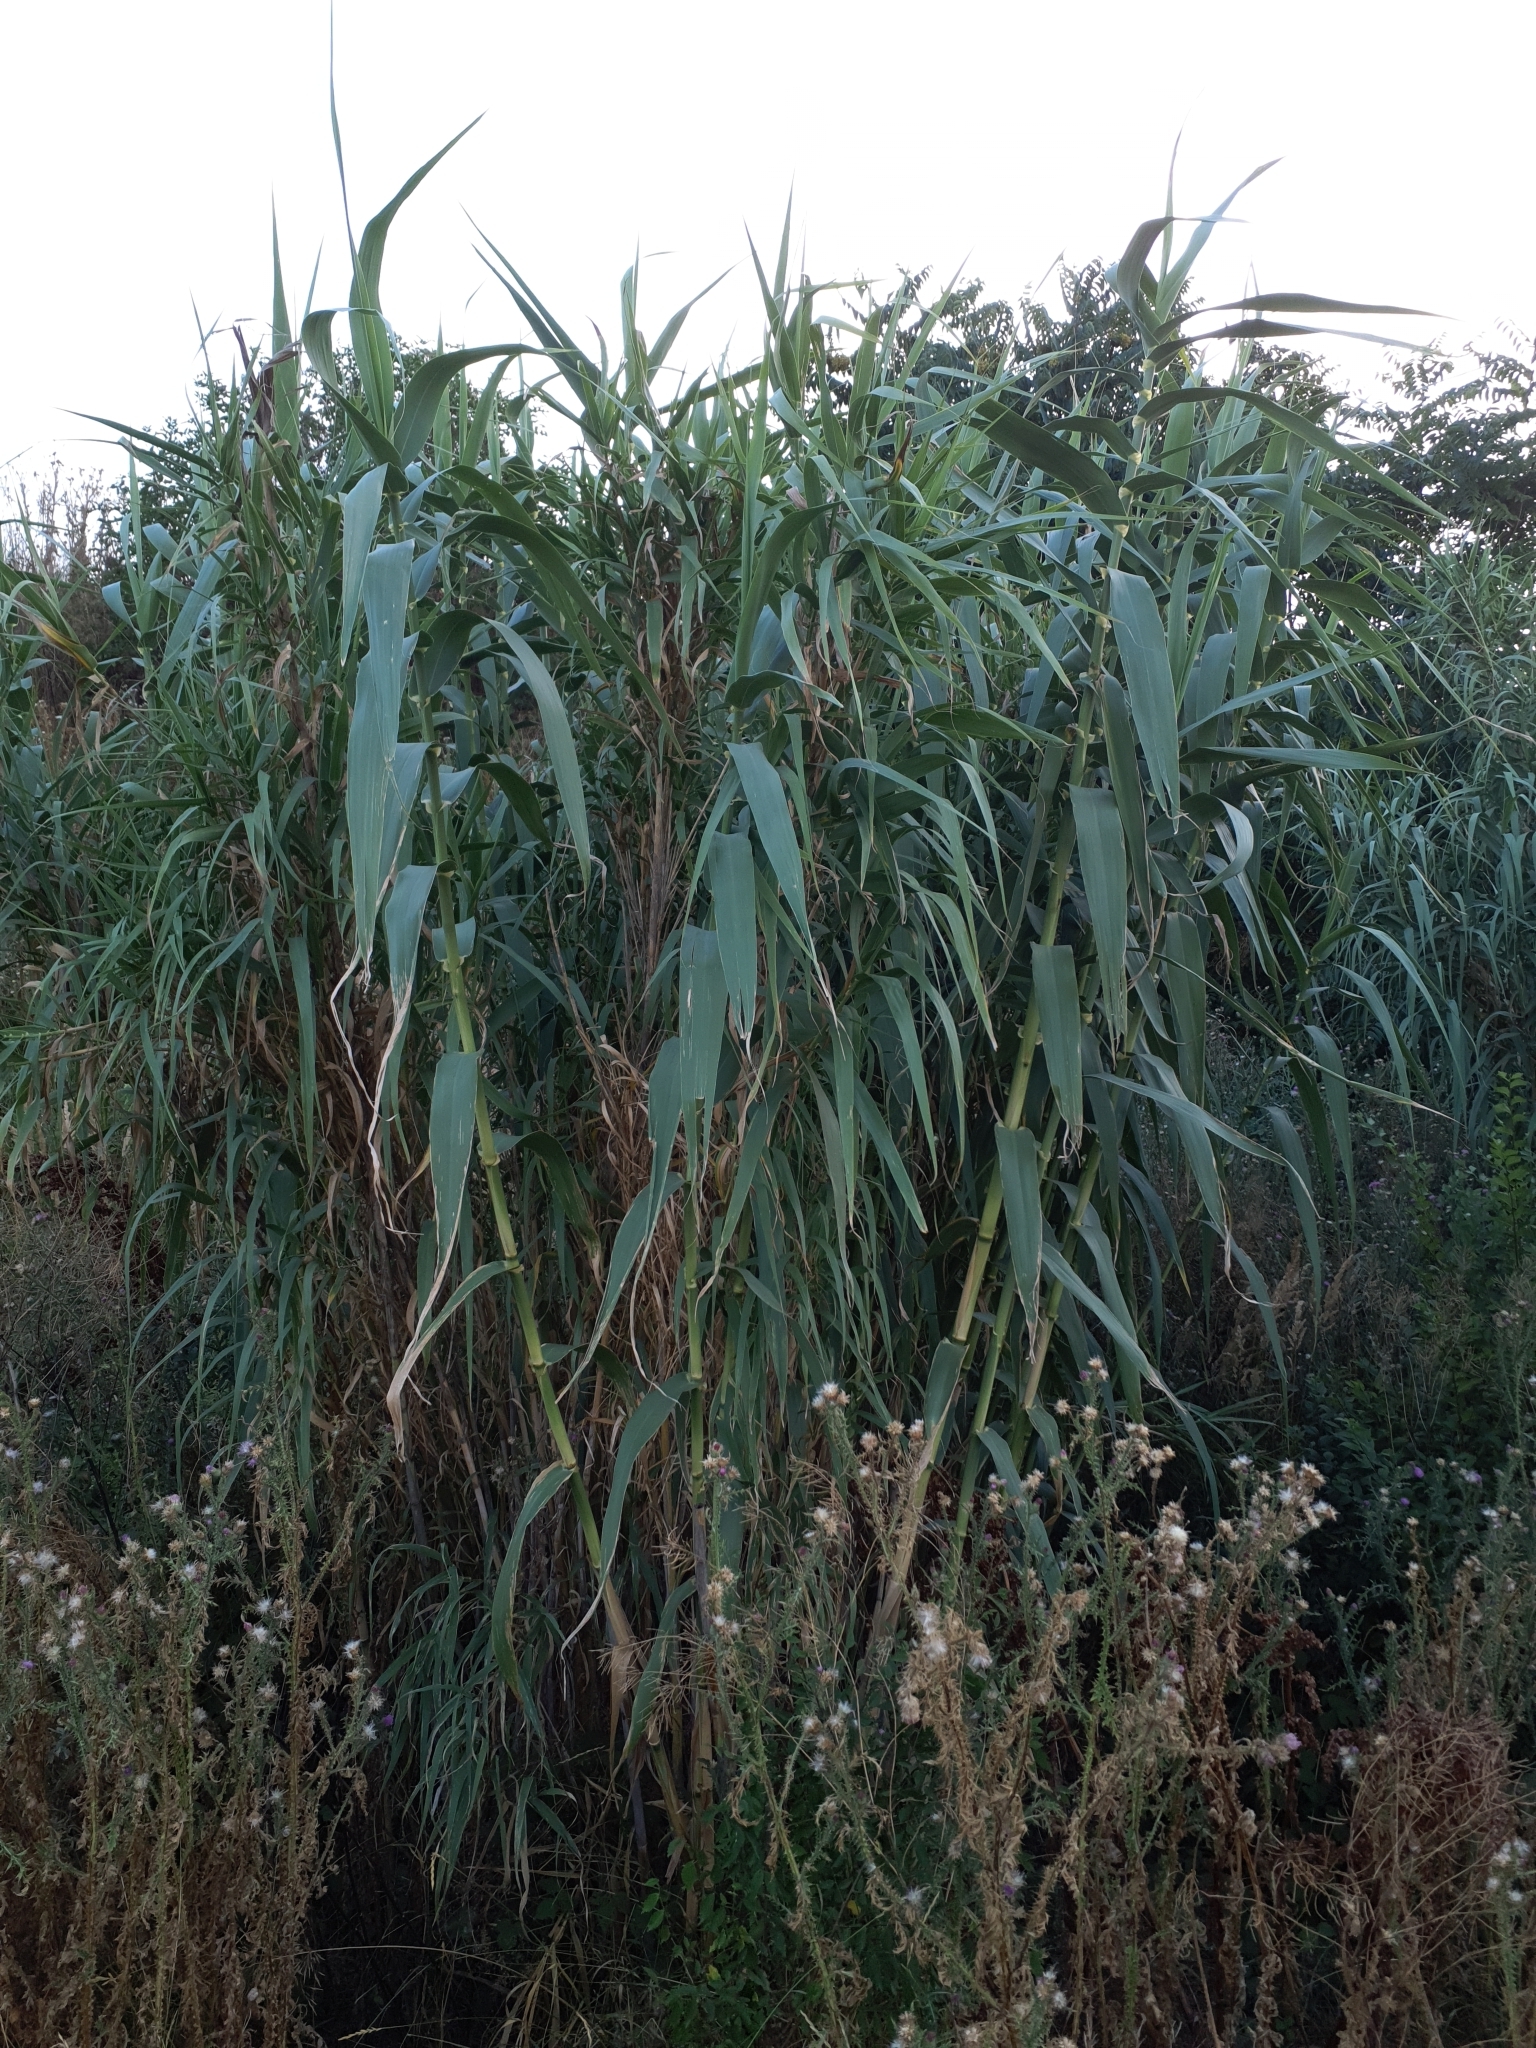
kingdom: Plantae
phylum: Tracheophyta
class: Liliopsida
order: Poales
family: Poaceae
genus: Arundo
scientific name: Arundo donax
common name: Giant reed
